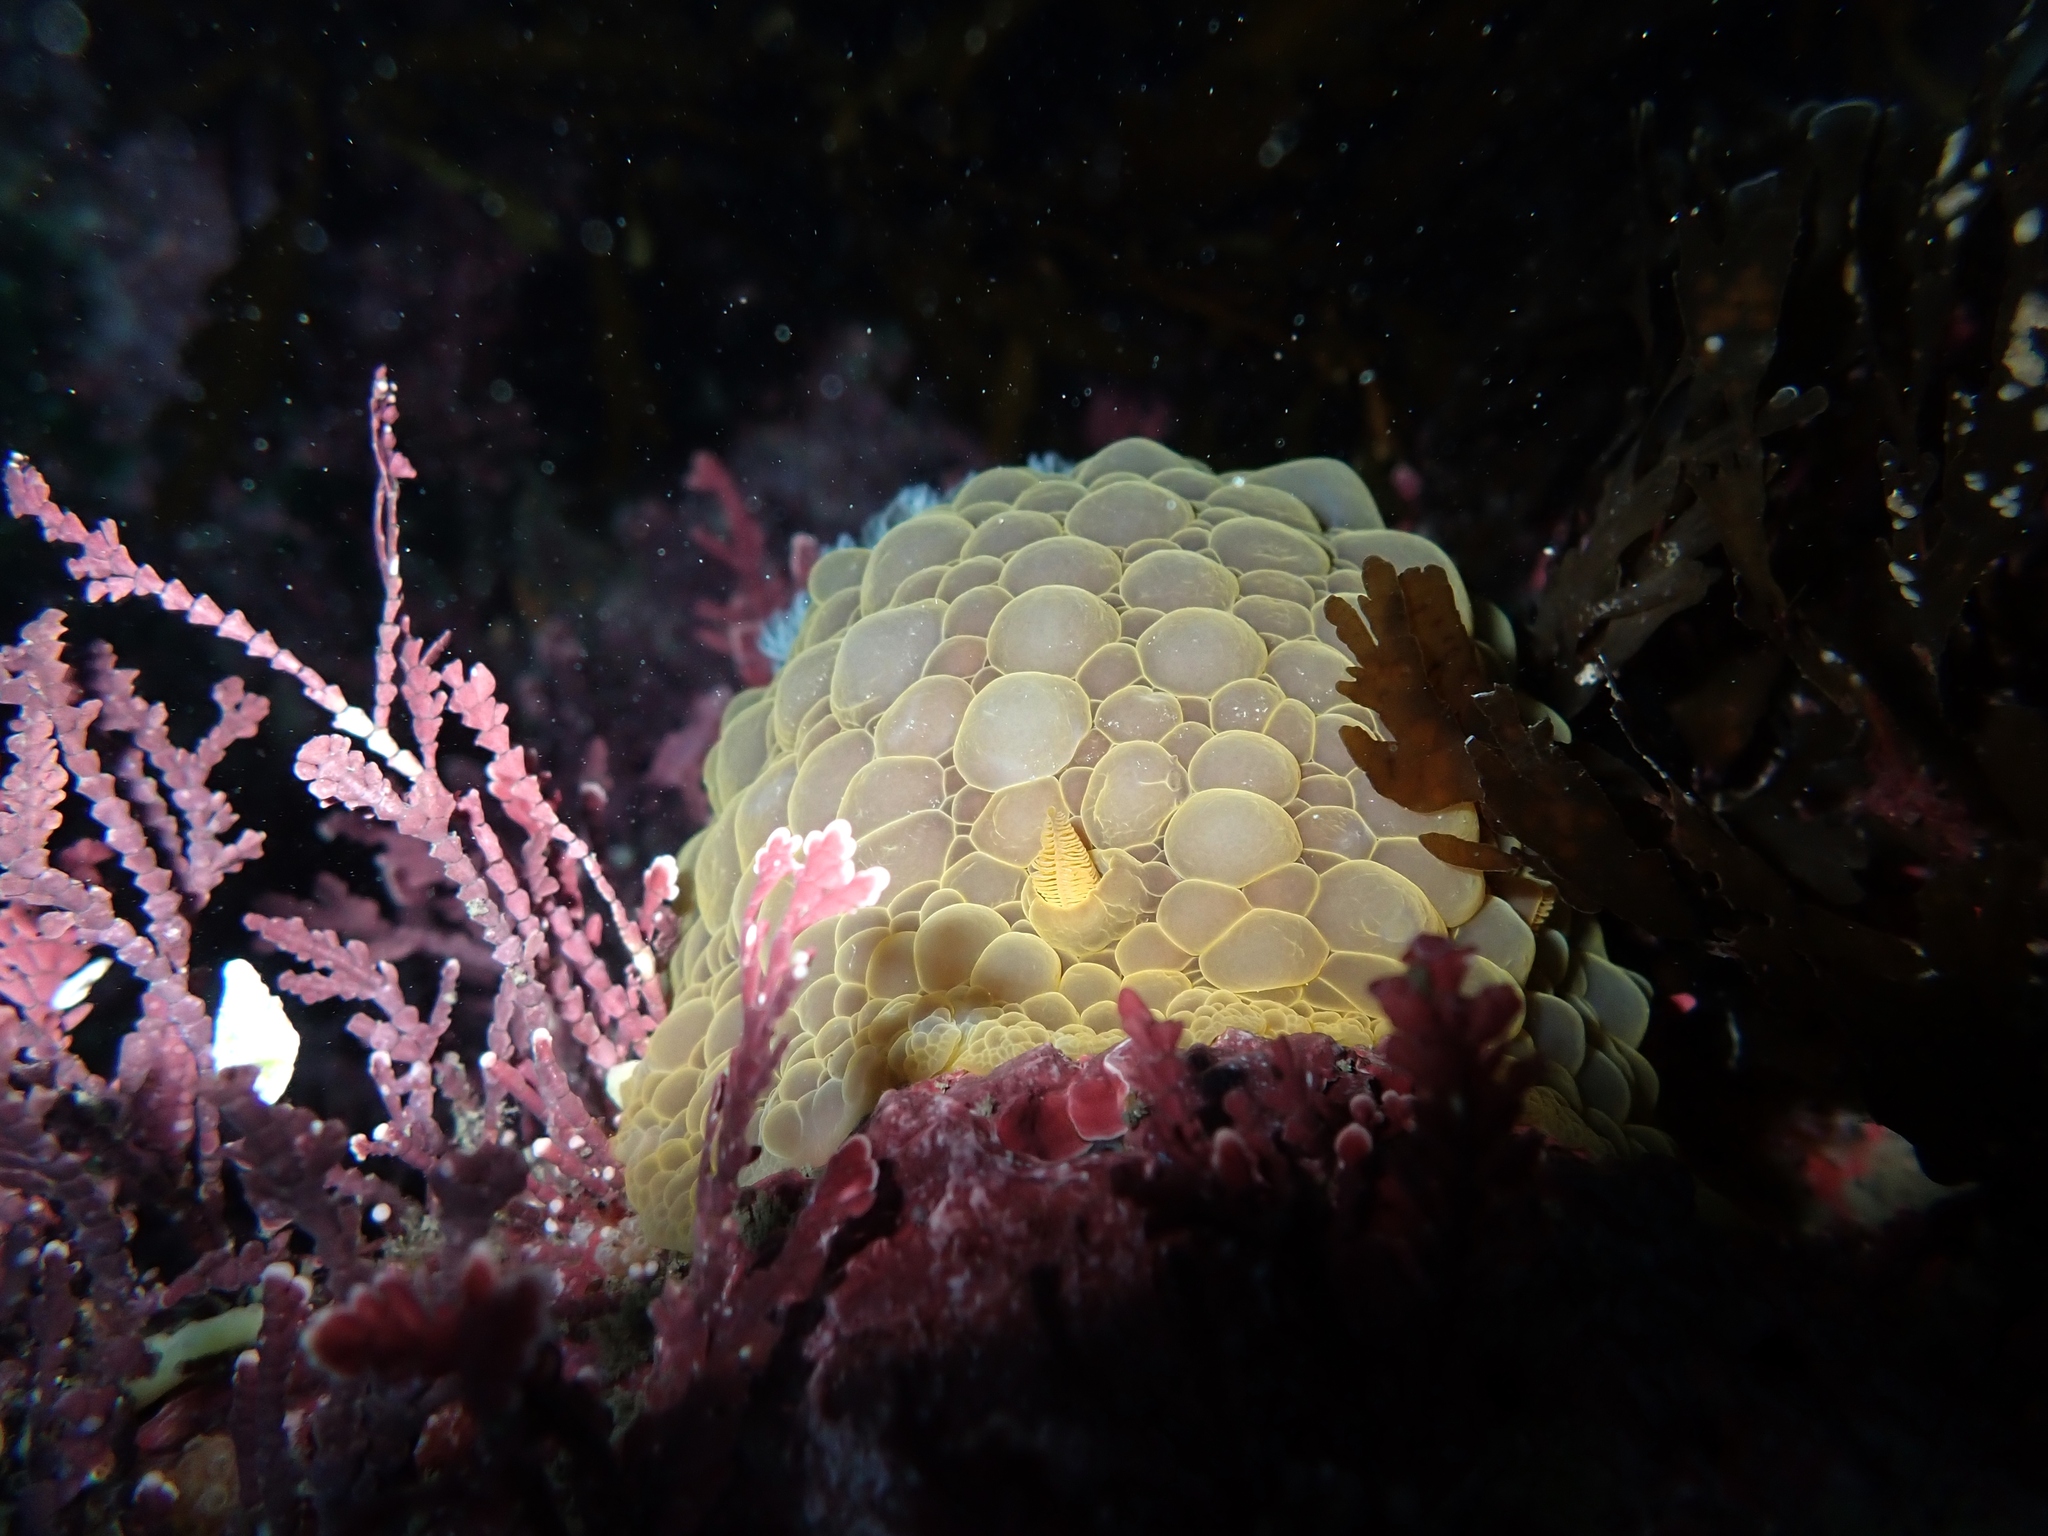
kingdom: Animalia
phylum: Mollusca
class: Gastropoda
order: Nudibranchia
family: Dorididae
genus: Doris
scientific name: Doris wellingtonensis
